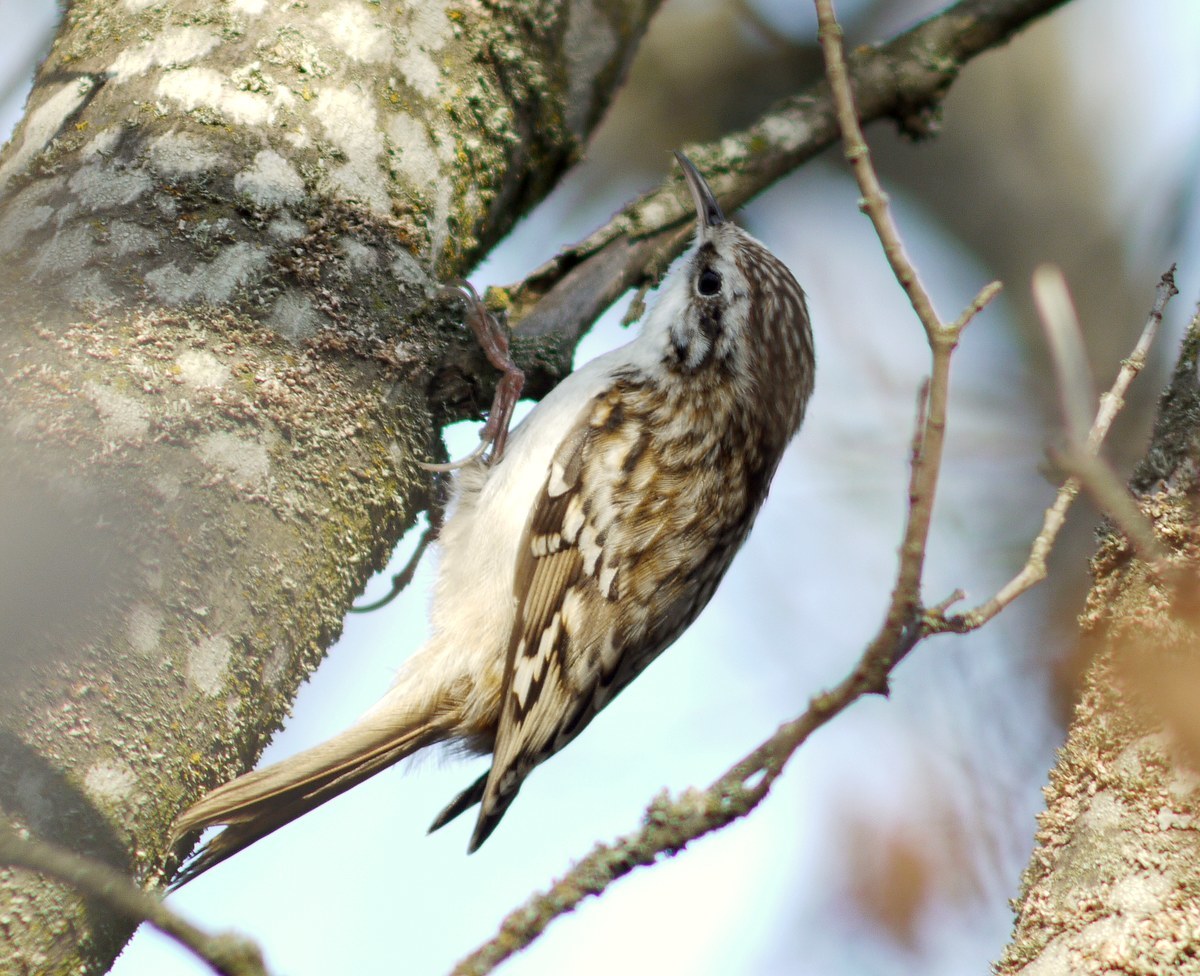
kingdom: Animalia
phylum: Chordata
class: Aves
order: Passeriformes
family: Certhiidae
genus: Certhia
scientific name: Certhia familiaris
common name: Eurasian treecreeper
